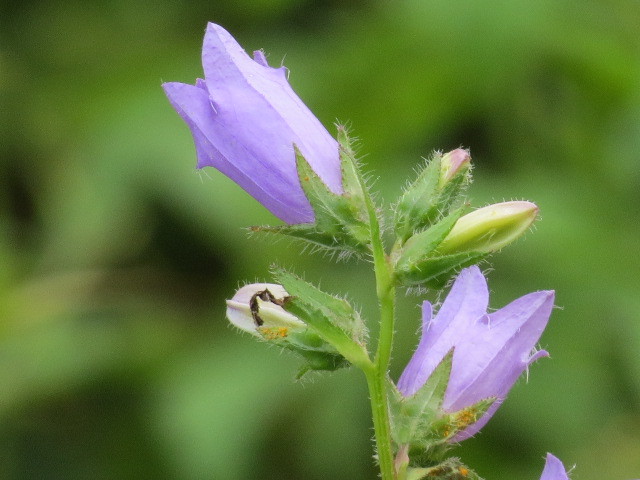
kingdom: Plantae
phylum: Tracheophyta
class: Magnoliopsida
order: Asterales
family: Campanulaceae
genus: Campanula
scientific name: Campanula trachelium
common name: Nettle-leaved bellflower
